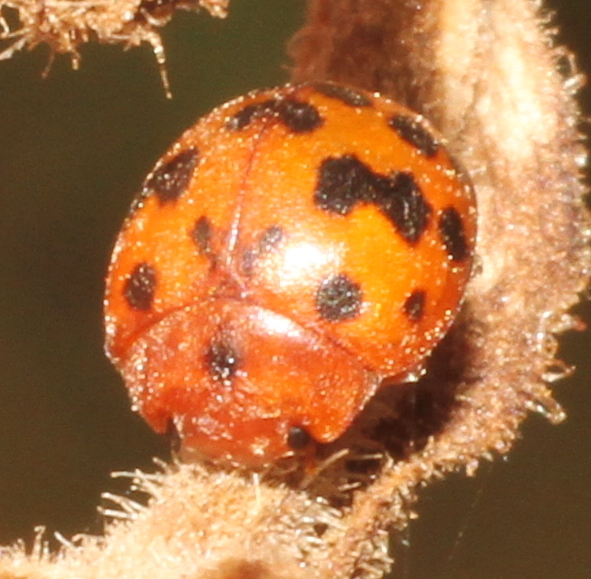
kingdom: Animalia
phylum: Arthropoda
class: Insecta
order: Coleoptera
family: Coccinellidae
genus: Subcoccinella
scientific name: Subcoccinella vigintiquatuorpunctata
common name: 24-spot ladybird
